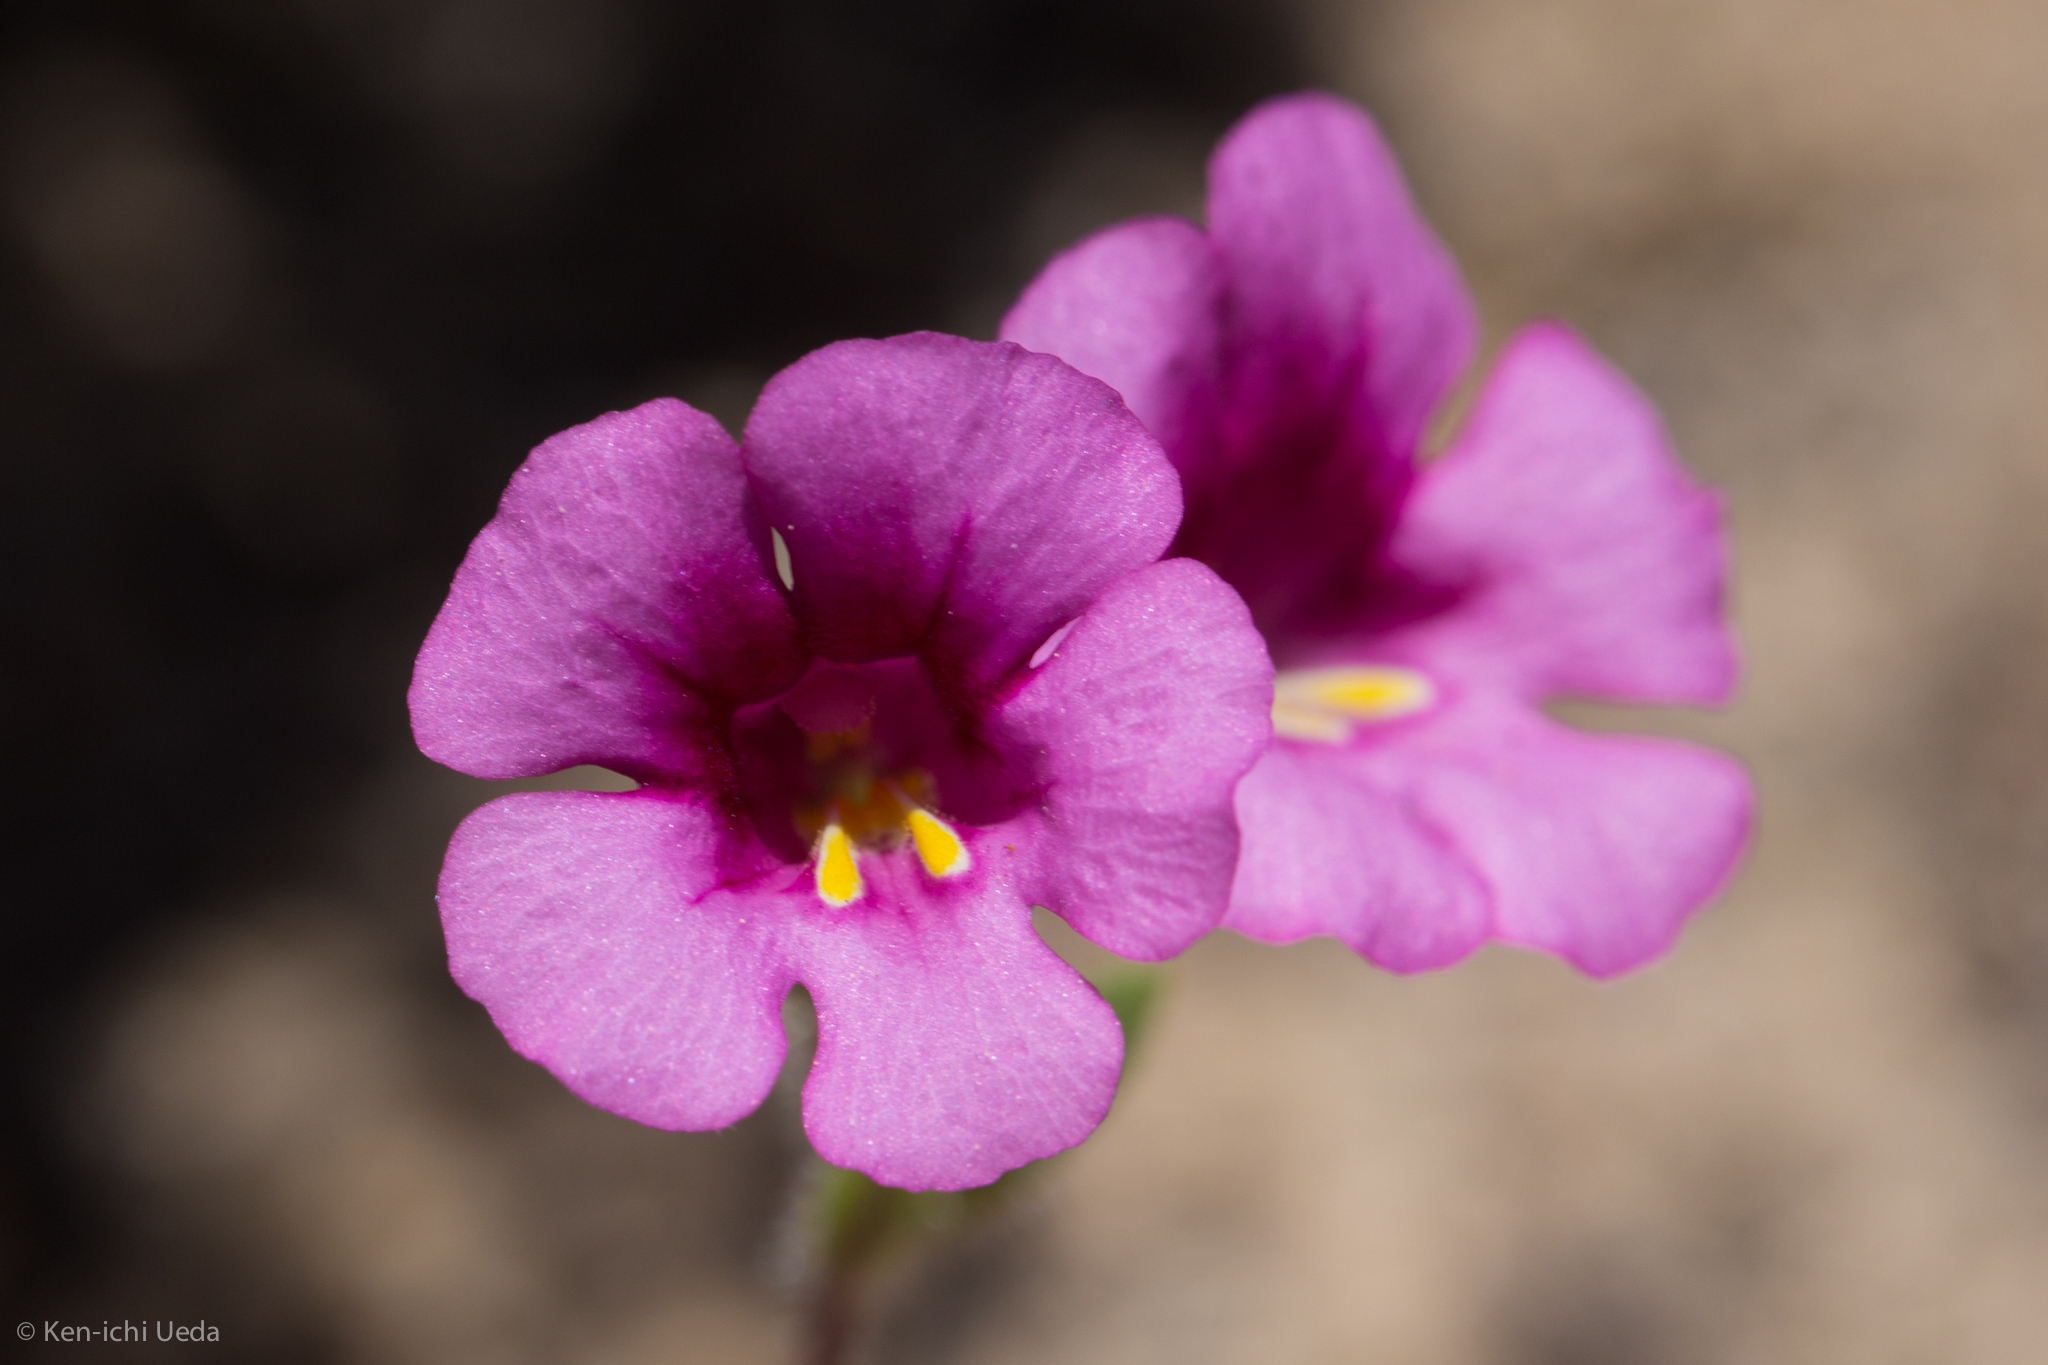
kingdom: Plantae
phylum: Tracheophyta
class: Magnoliopsida
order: Lamiales
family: Phrymaceae
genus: Diplacus
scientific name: Diplacus fremontii
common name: Fremont's monkey-flower
